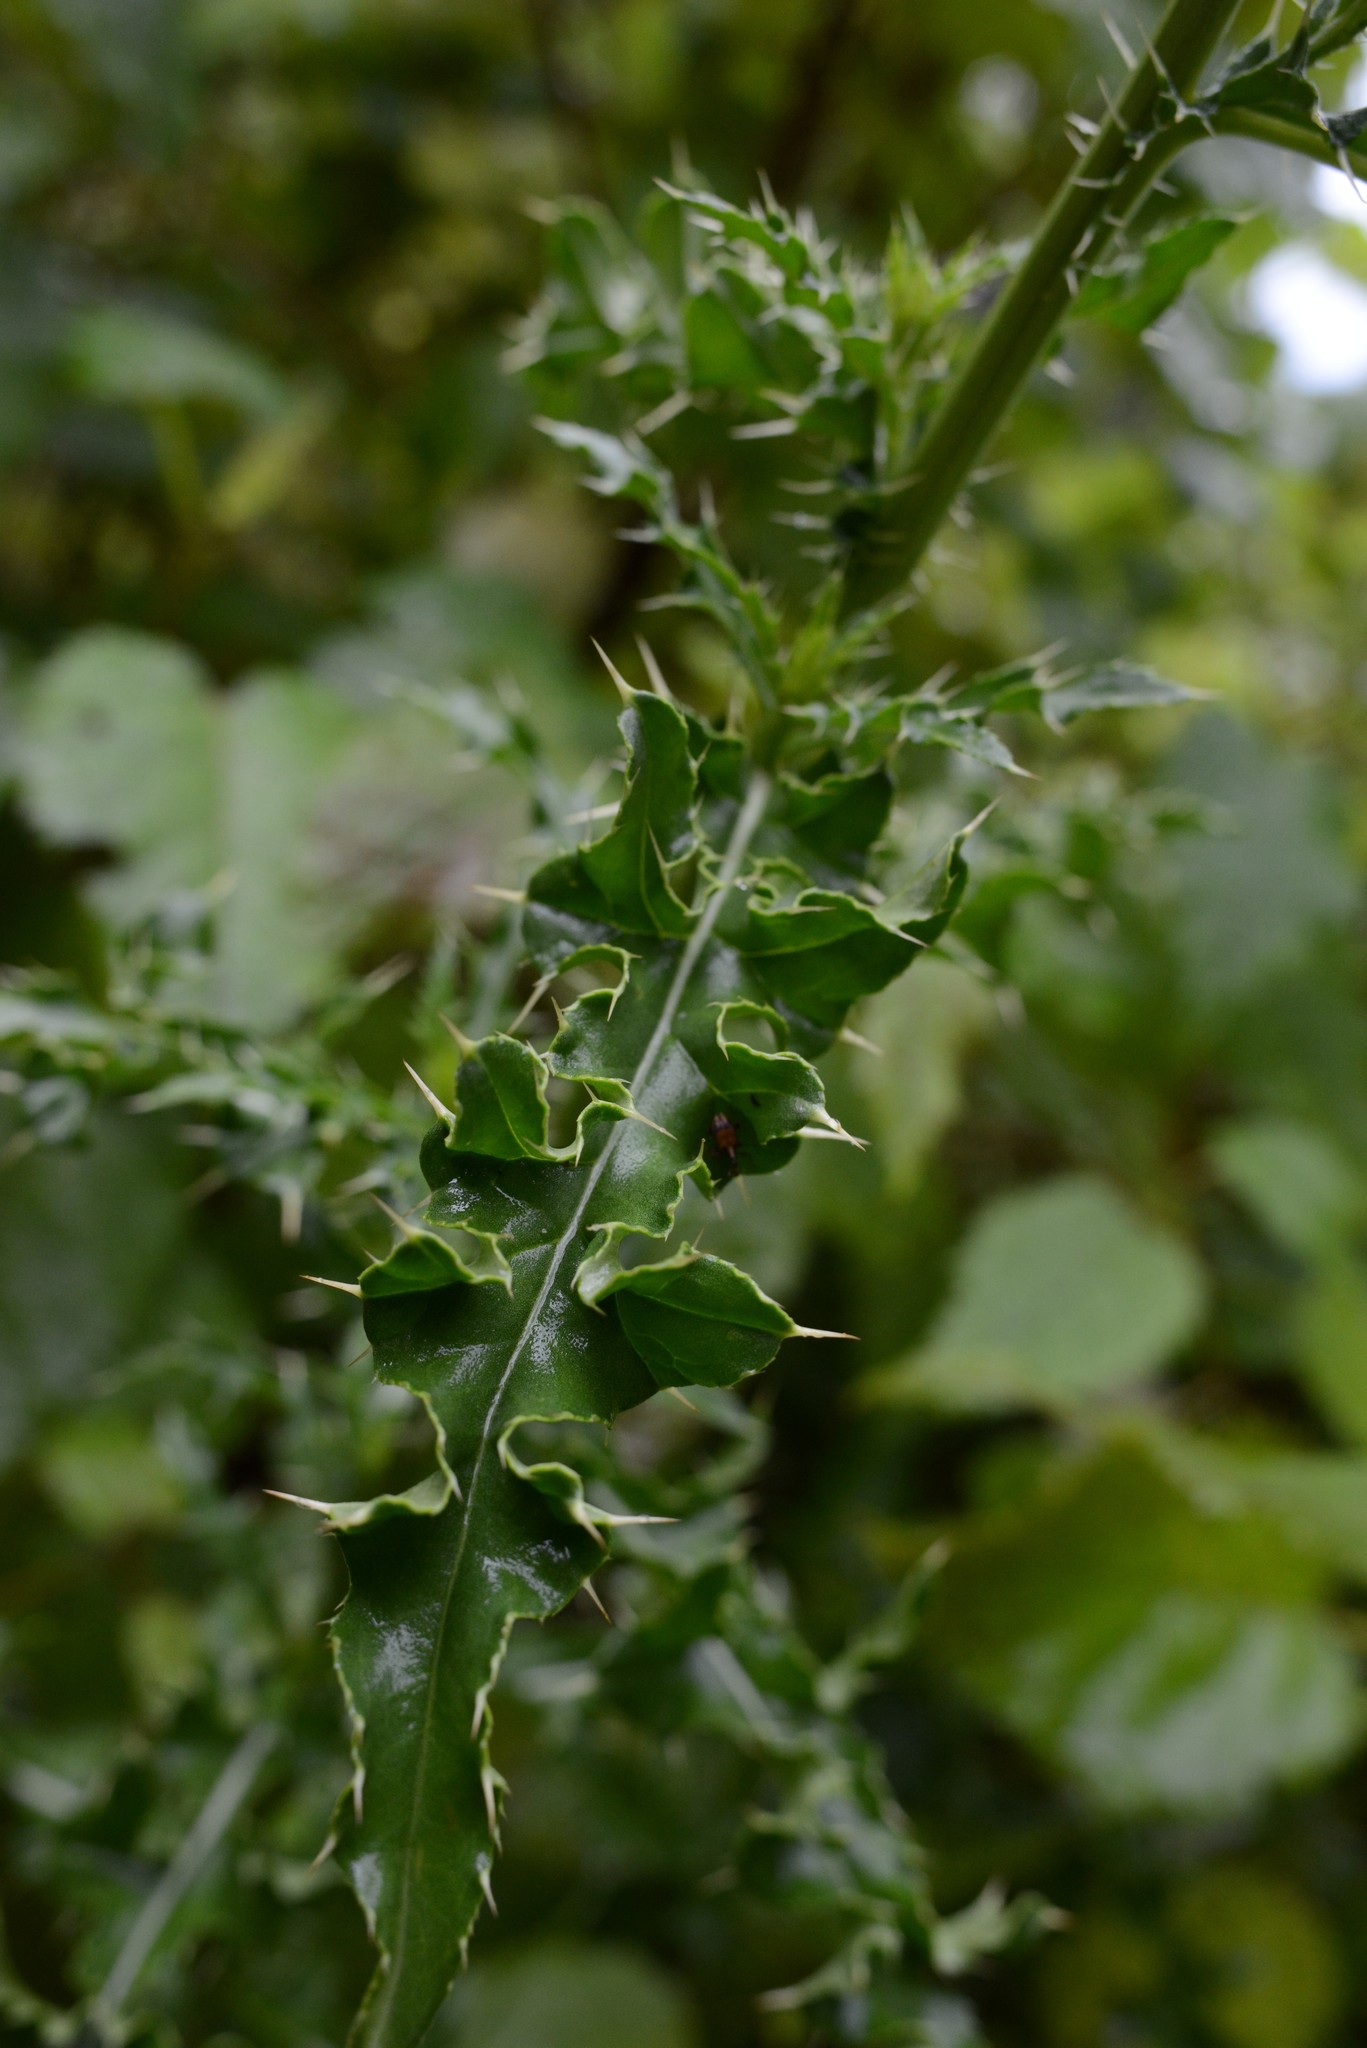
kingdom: Plantae
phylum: Tracheophyta
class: Magnoliopsida
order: Asterales
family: Asteraceae
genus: Cirsium
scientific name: Cirsium arvense
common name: Creeping thistle
